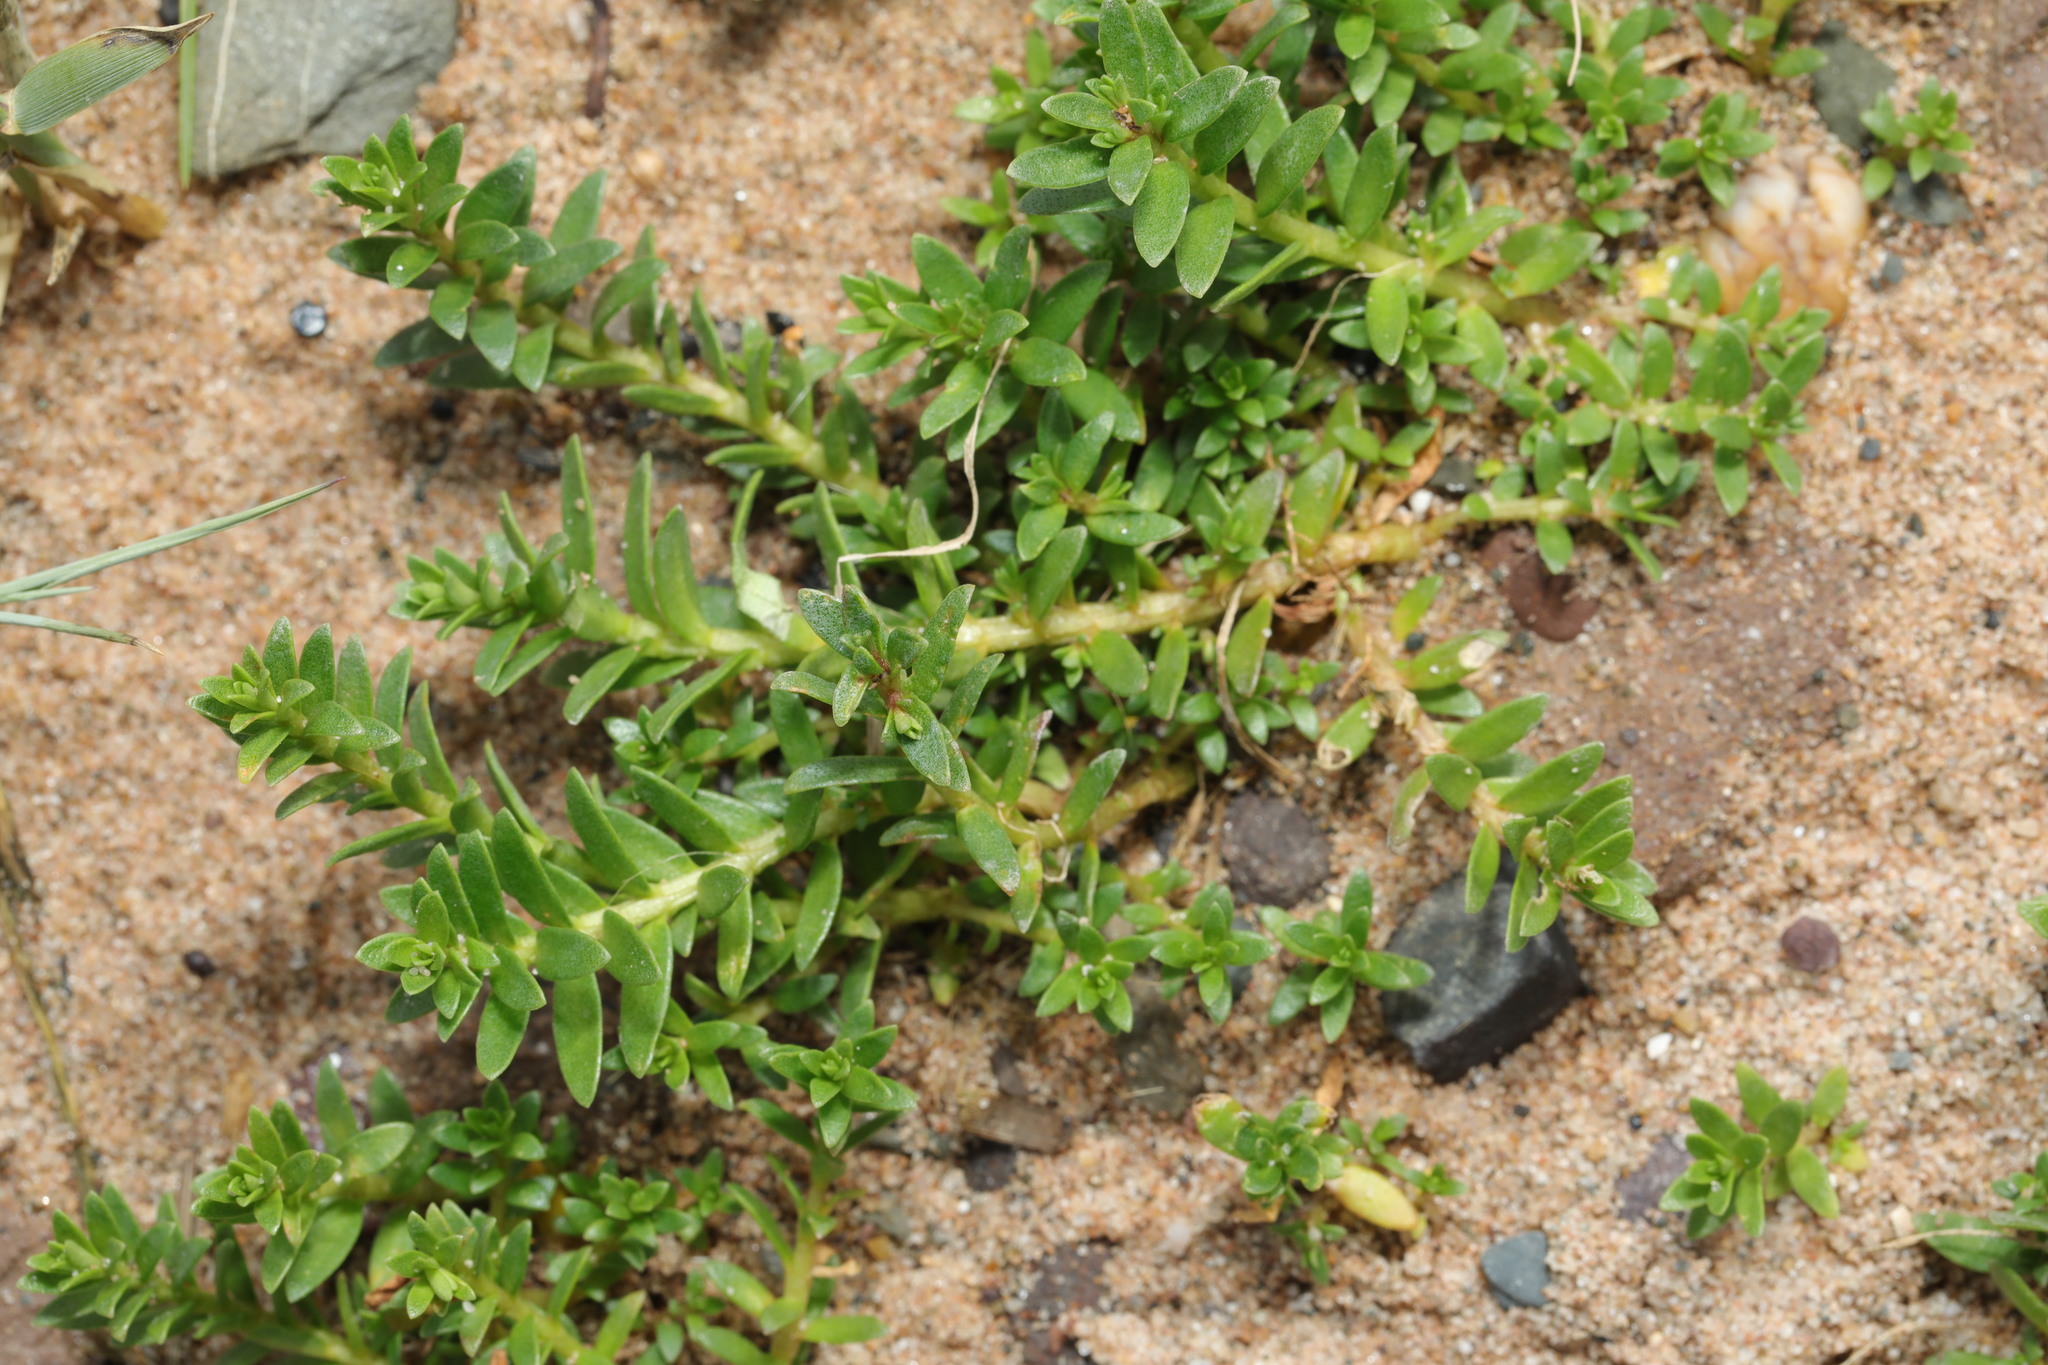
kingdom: Plantae
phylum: Tracheophyta
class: Magnoliopsida
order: Ericales
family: Primulaceae
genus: Lysimachia
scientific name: Lysimachia maritima
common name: Sea milkwort
